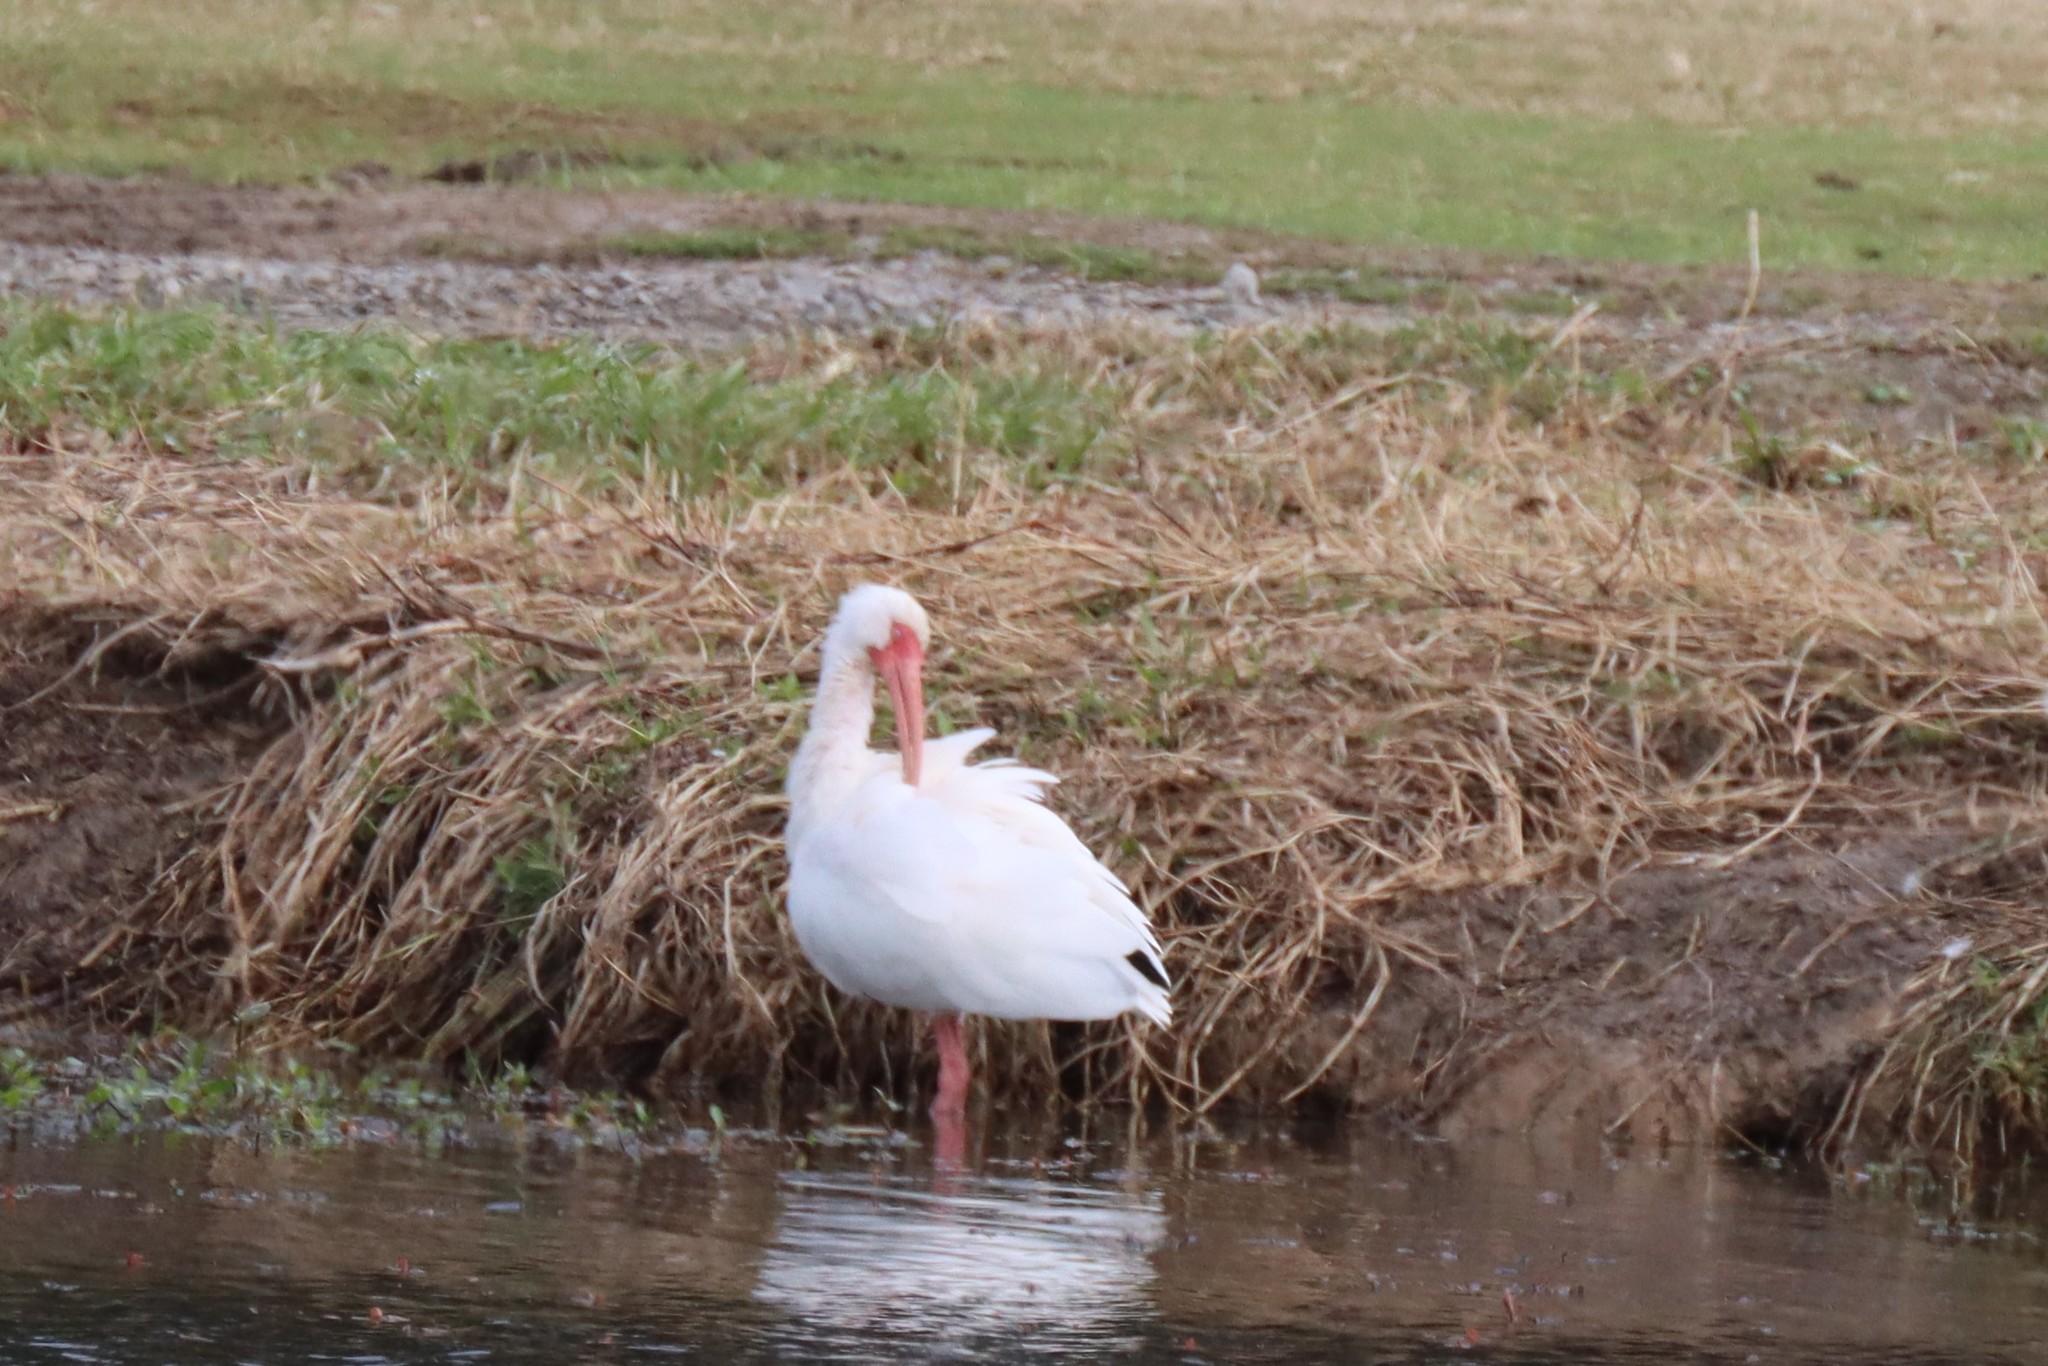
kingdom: Animalia
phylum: Chordata
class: Aves
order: Pelecaniformes
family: Threskiornithidae
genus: Eudocimus
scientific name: Eudocimus albus
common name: White ibis
